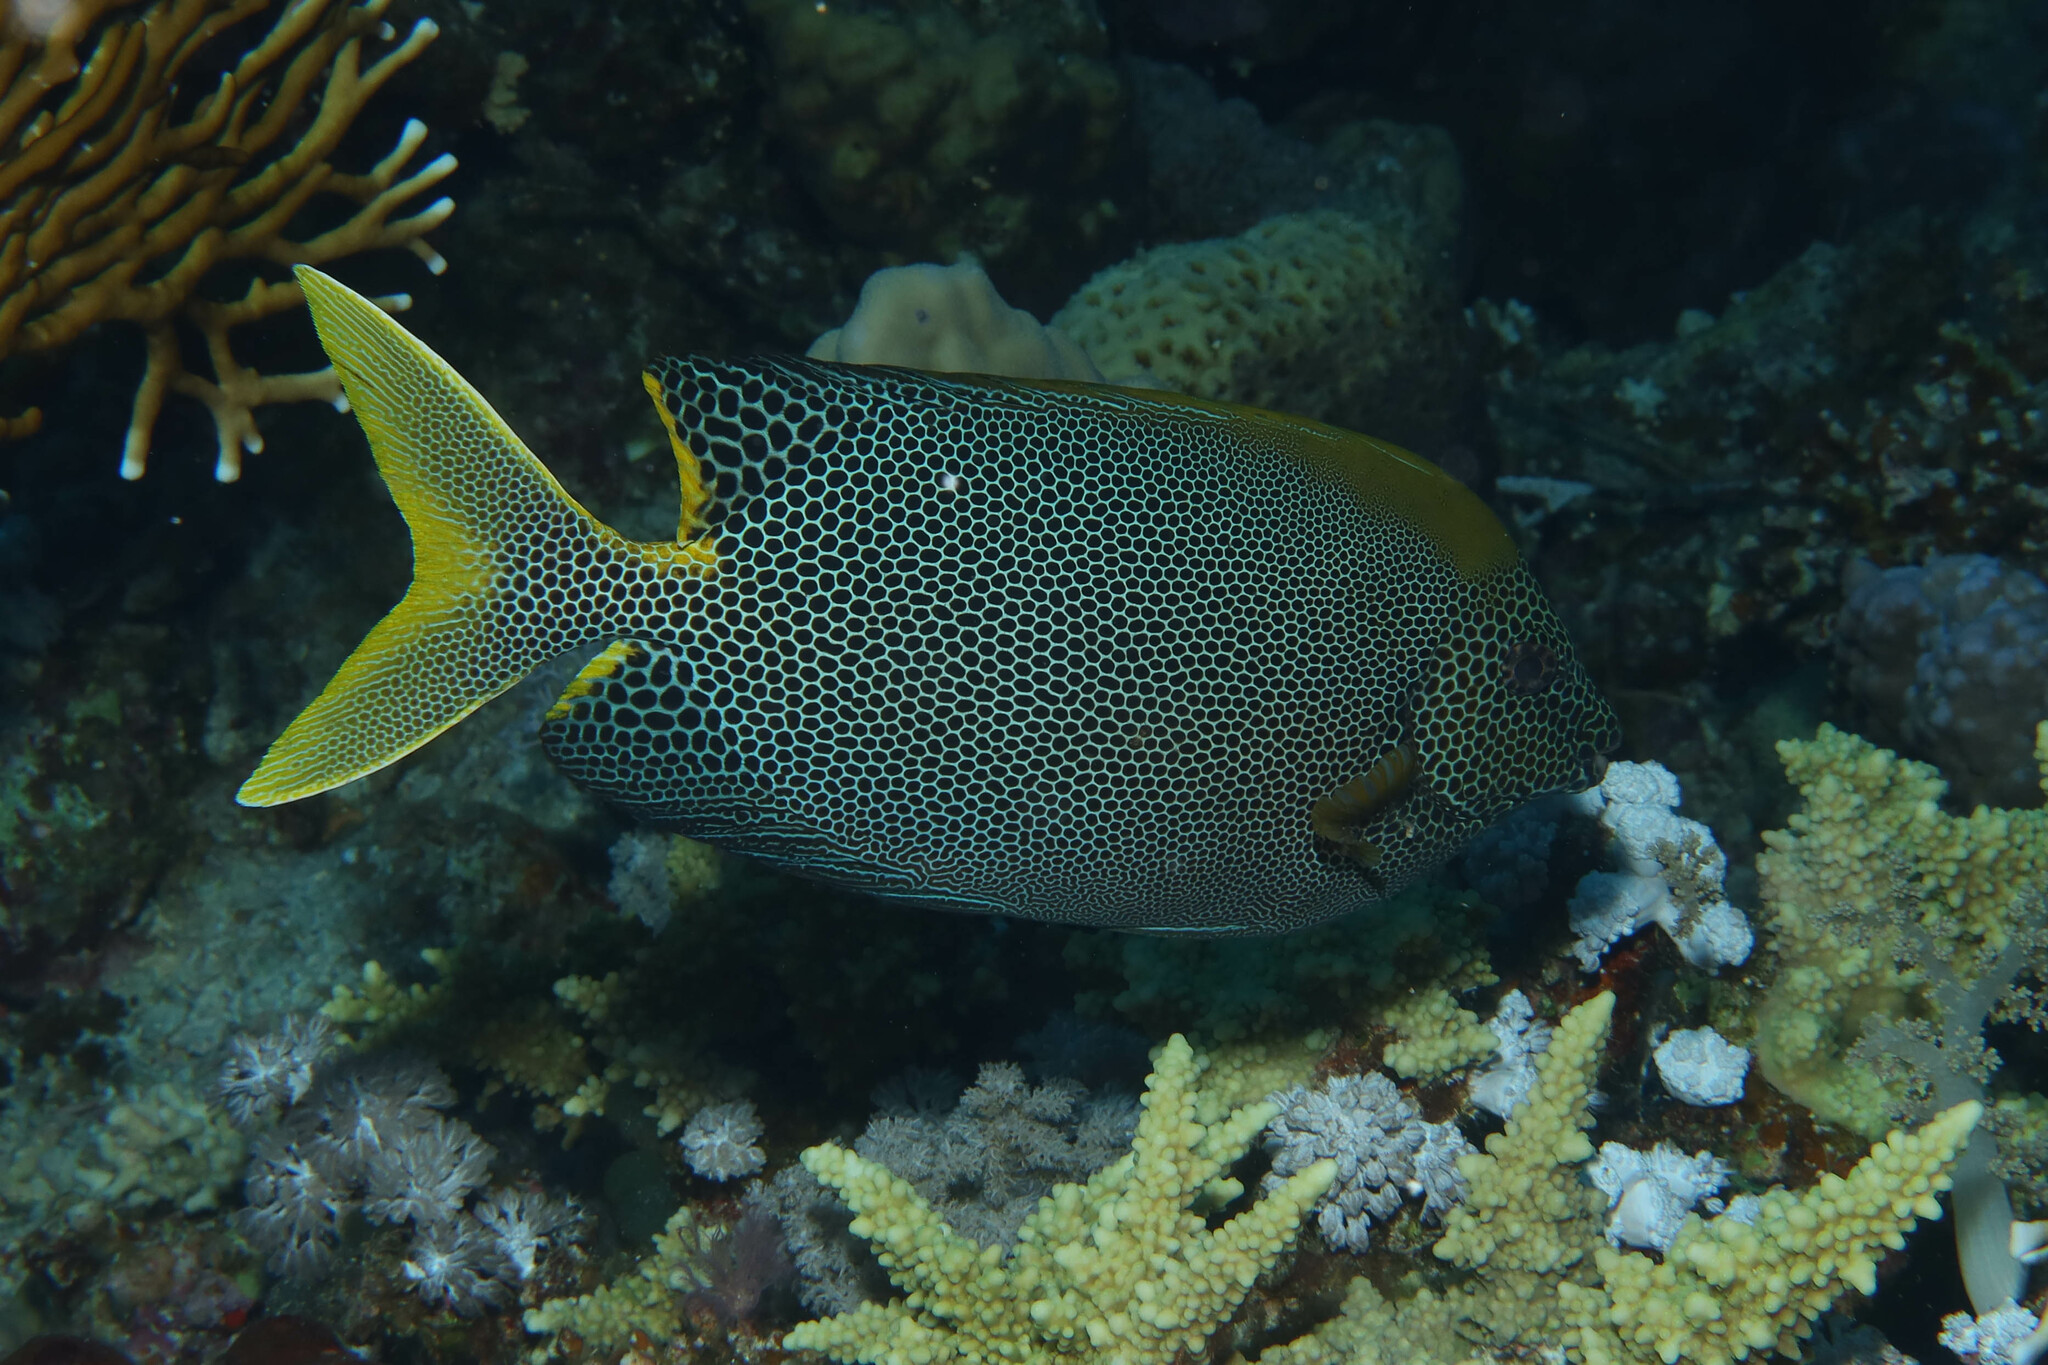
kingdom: Animalia
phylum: Chordata
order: Perciformes
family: Siganidae
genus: Siganus
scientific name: Siganus stellatus
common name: Brown-spotted spinefoot
